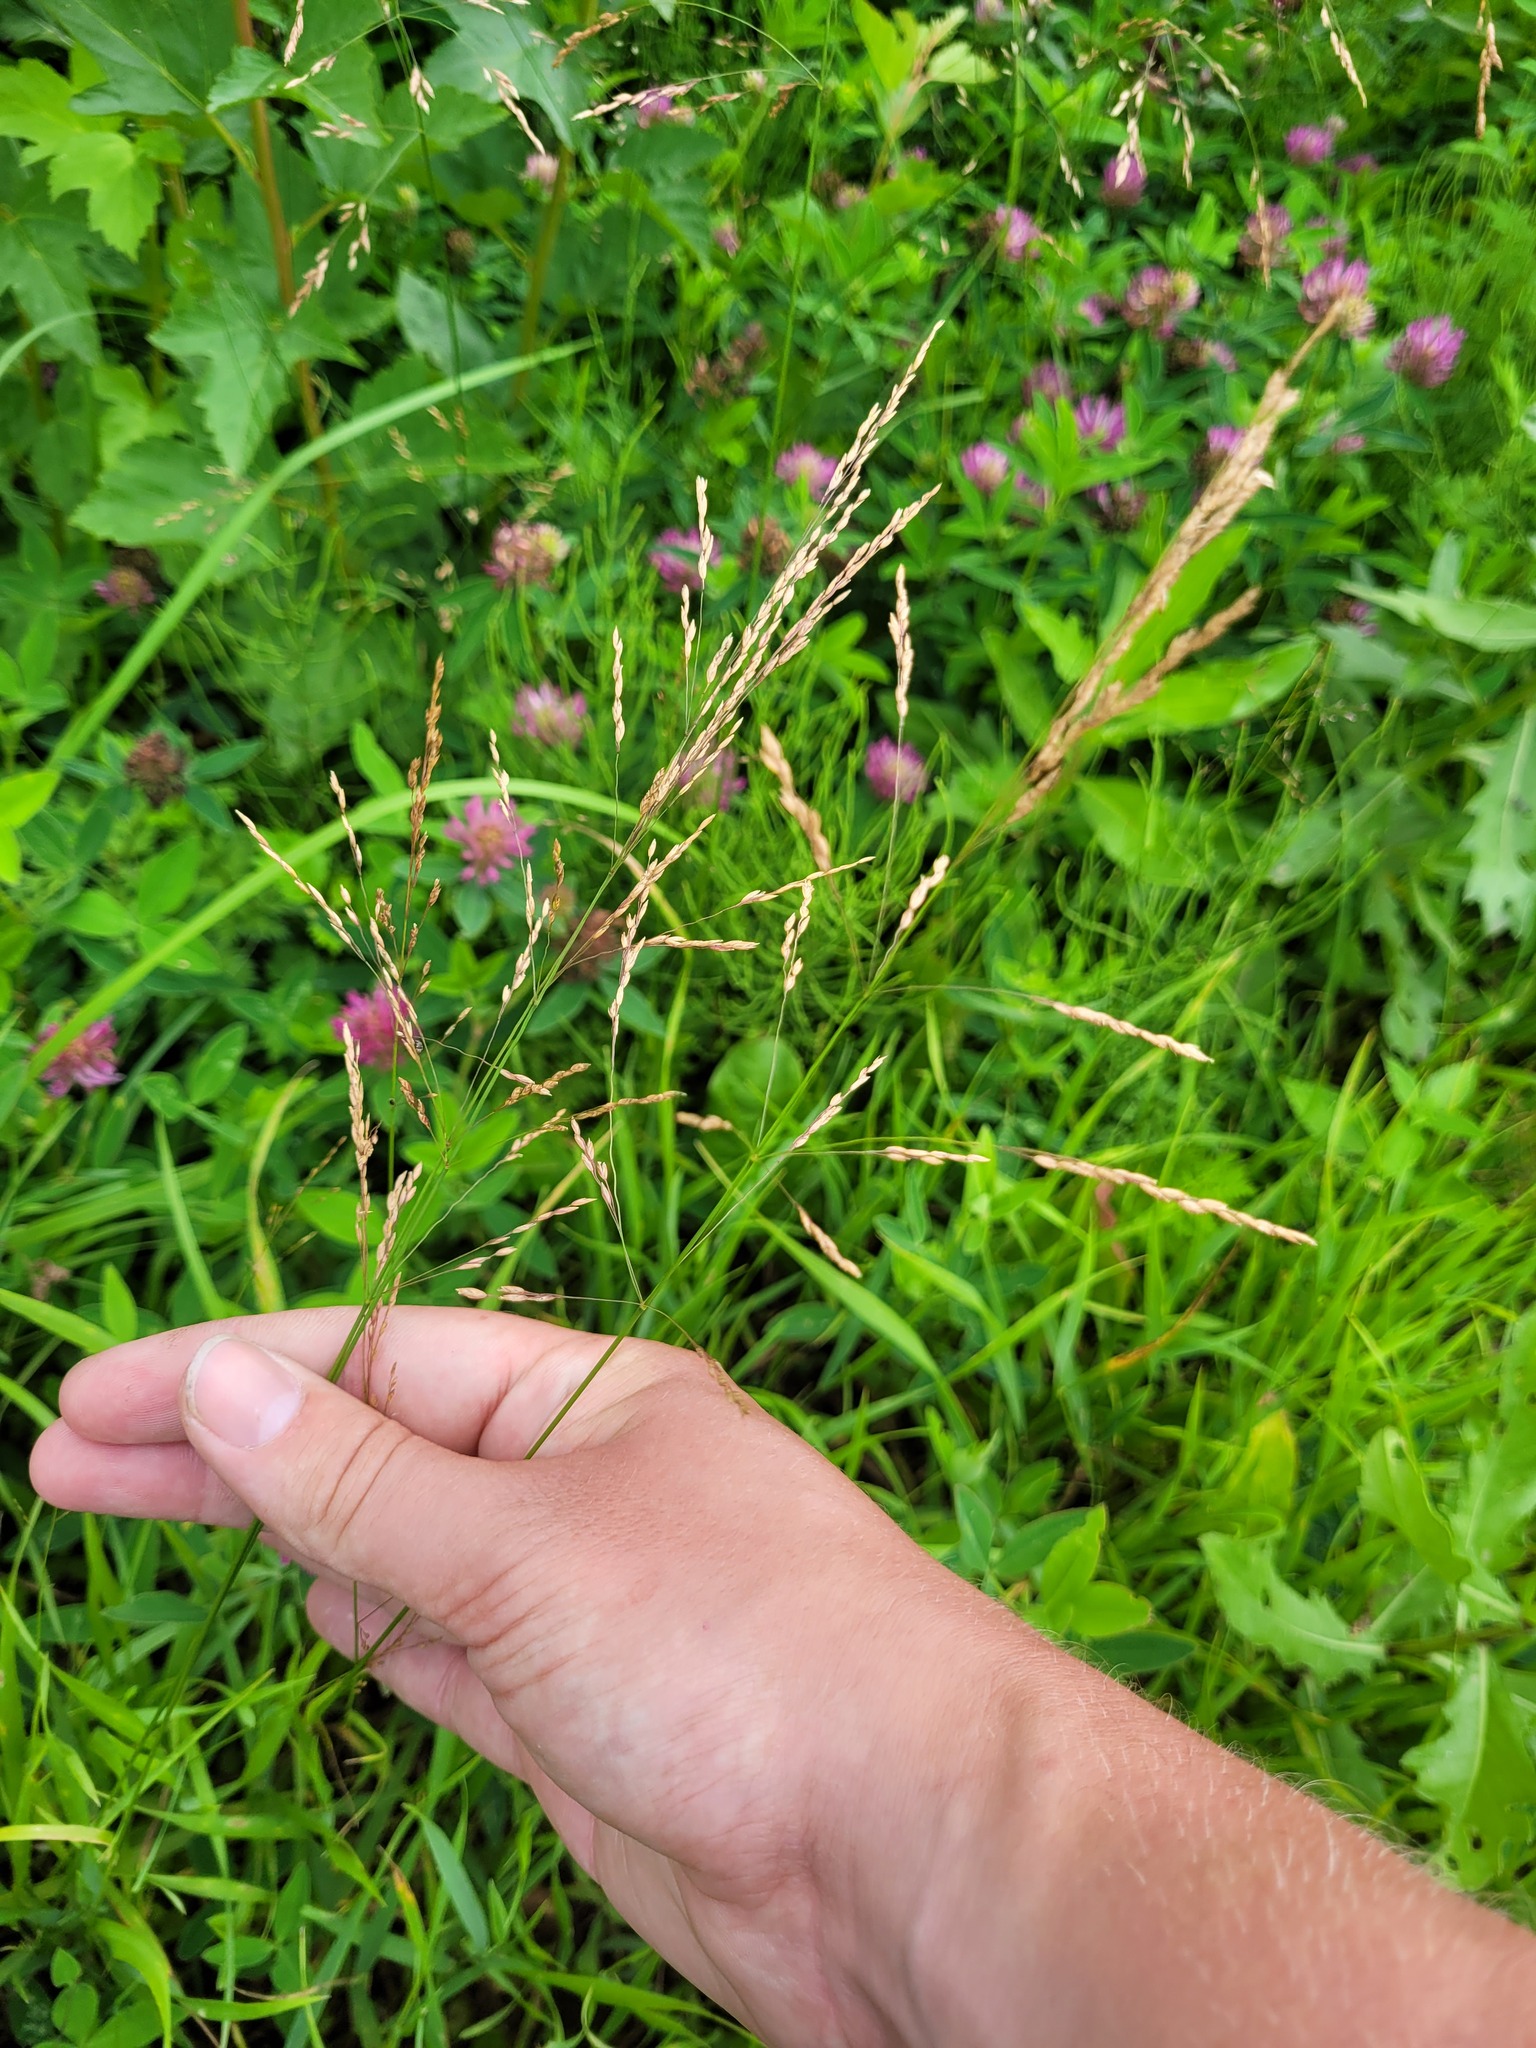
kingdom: Plantae
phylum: Tracheophyta
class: Liliopsida
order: Poales
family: Poaceae
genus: Poa
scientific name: Poa palustris
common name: Swamp meadow-grass
